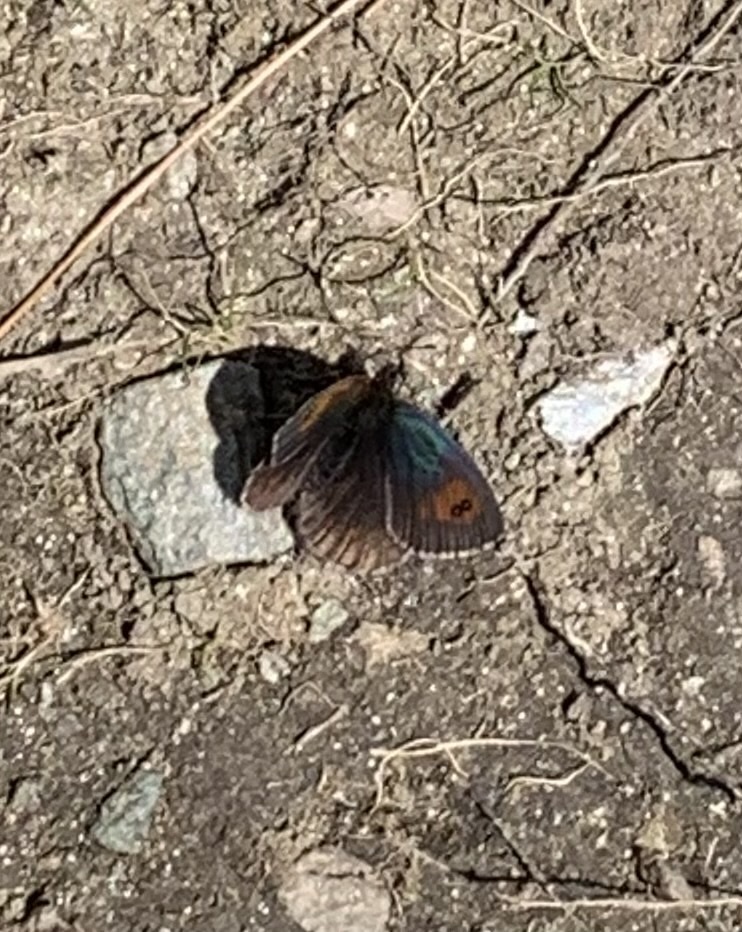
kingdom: Animalia
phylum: Arthropoda
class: Insecta
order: Lepidoptera
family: Nymphalidae
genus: Erebia
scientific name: Erebia tyndarus
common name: Swiss brassy ringlet
